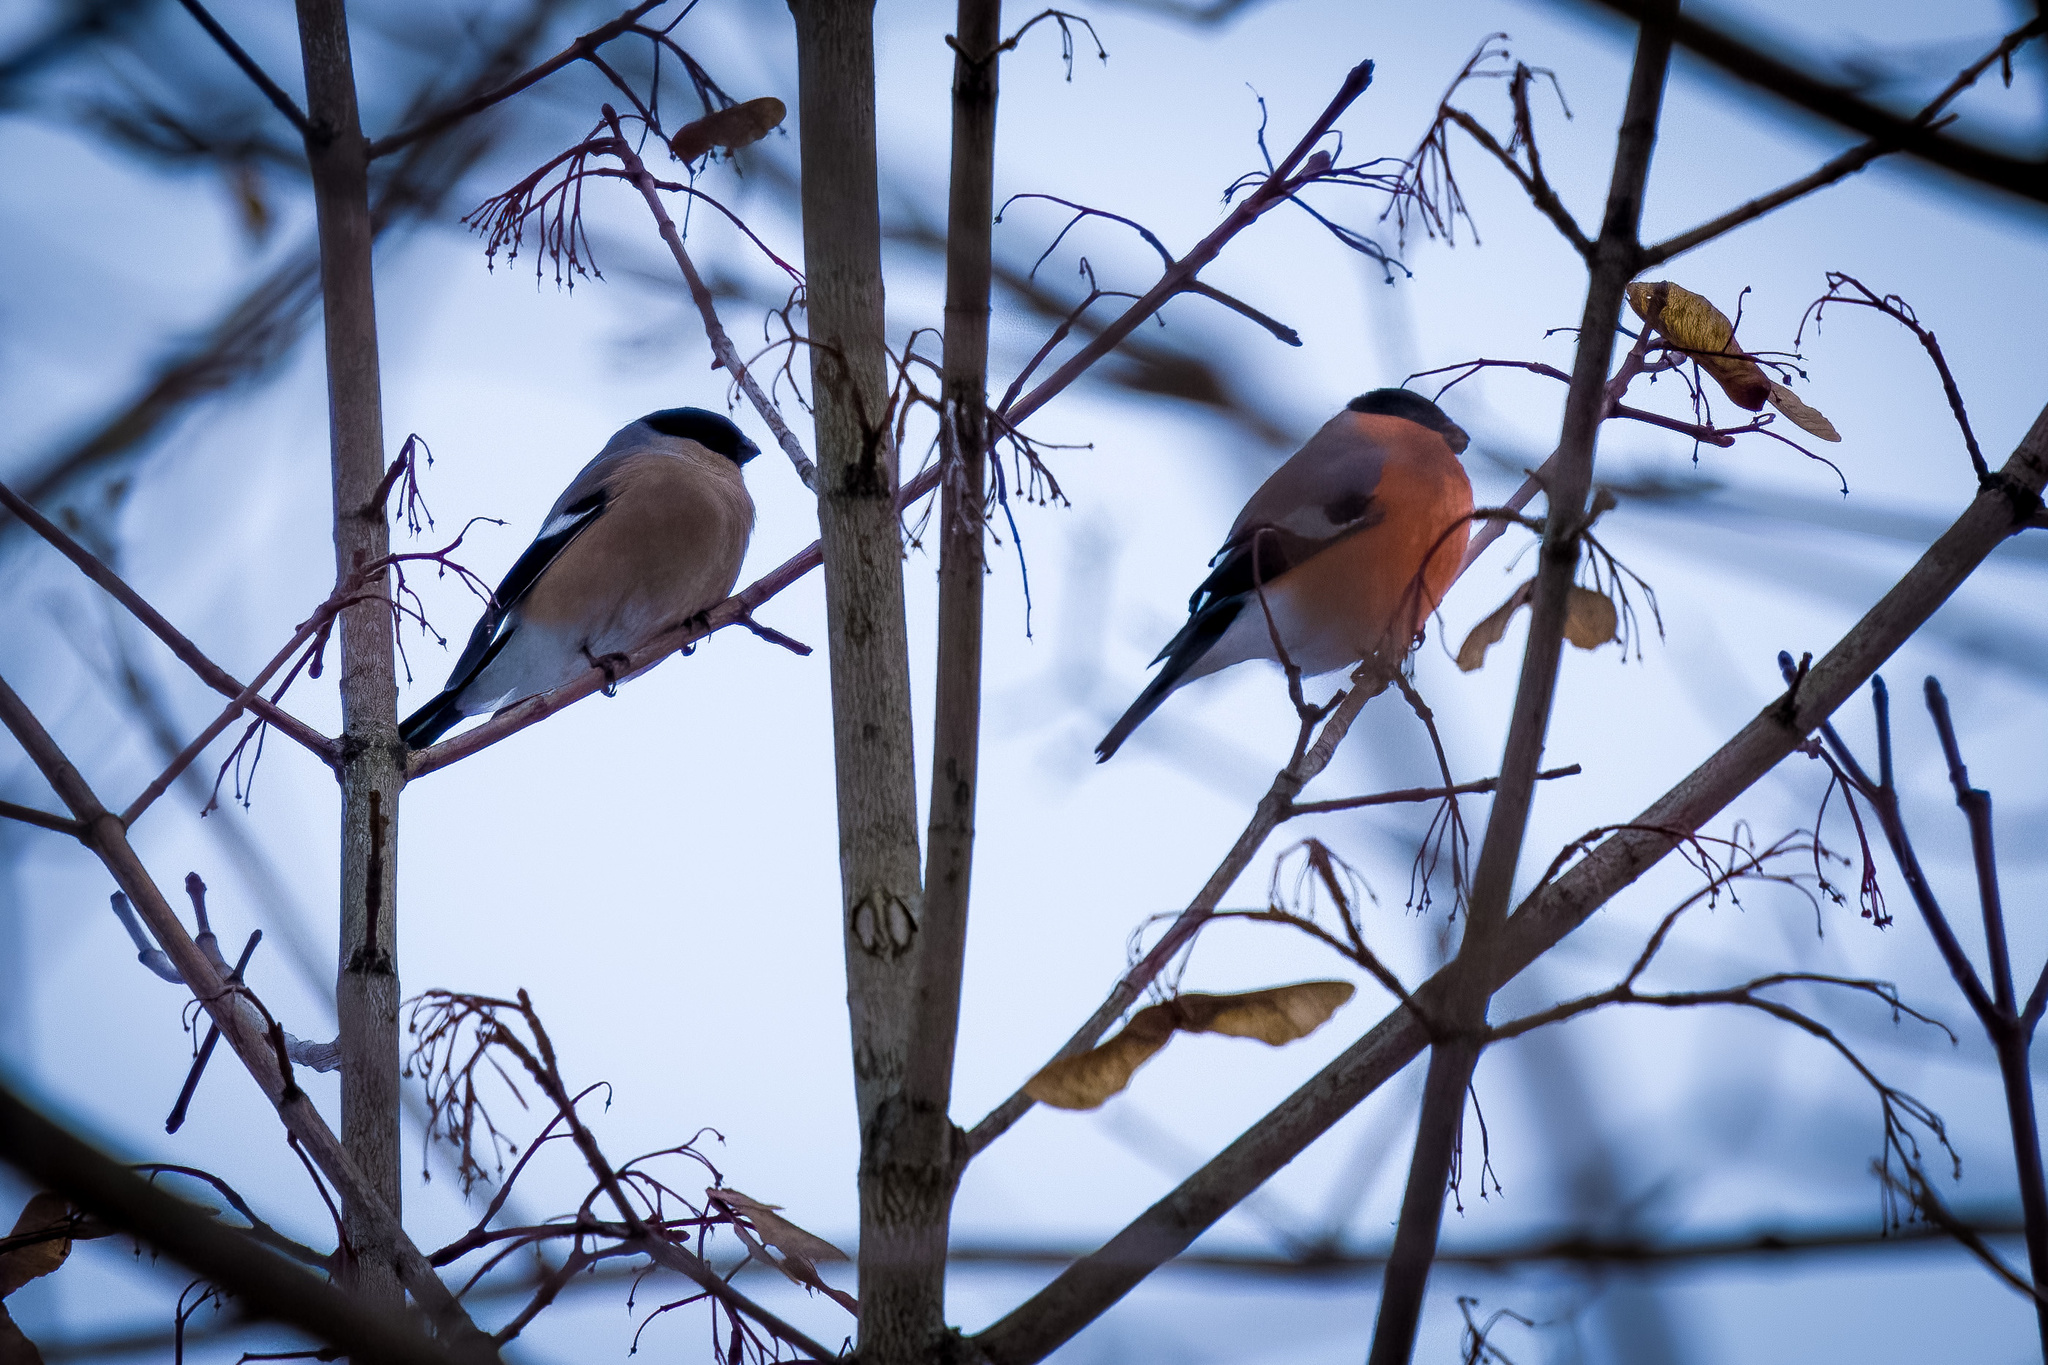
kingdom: Animalia
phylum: Chordata
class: Aves
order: Passeriformes
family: Fringillidae
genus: Pyrrhula
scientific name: Pyrrhula pyrrhula
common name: Eurasian bullfinch
